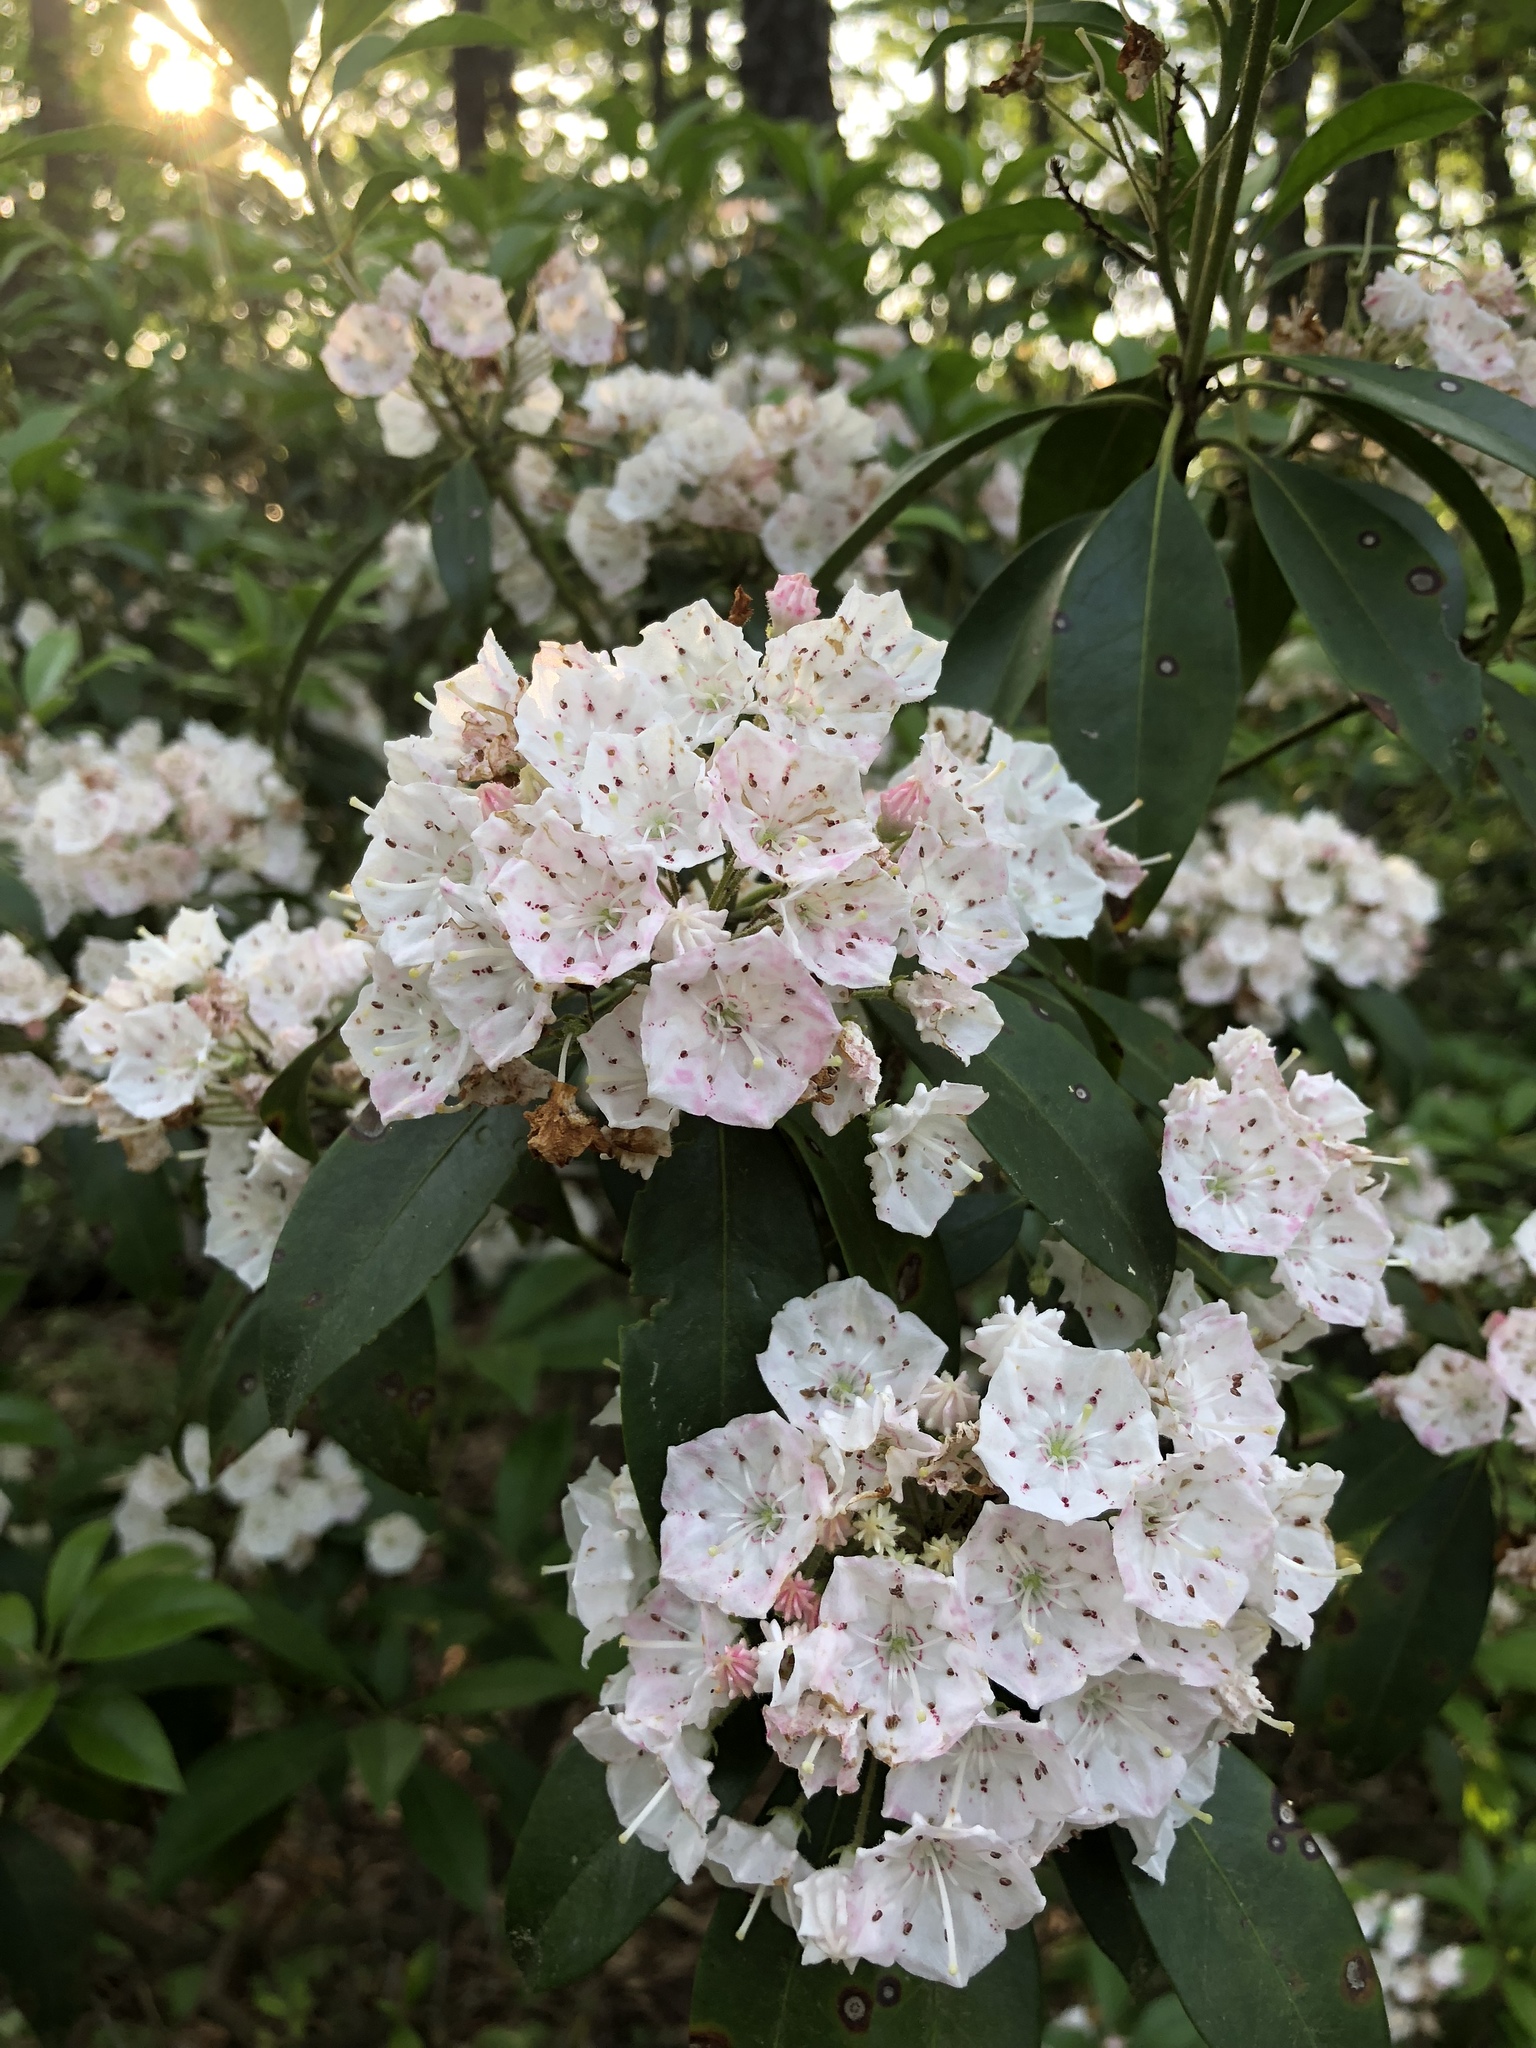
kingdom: Plantae
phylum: Tracheophyta
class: Magnoliopsida
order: Ericales
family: Ericaceae
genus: Kalmia
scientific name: Kalmia latifolia
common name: Mountain-laurel
